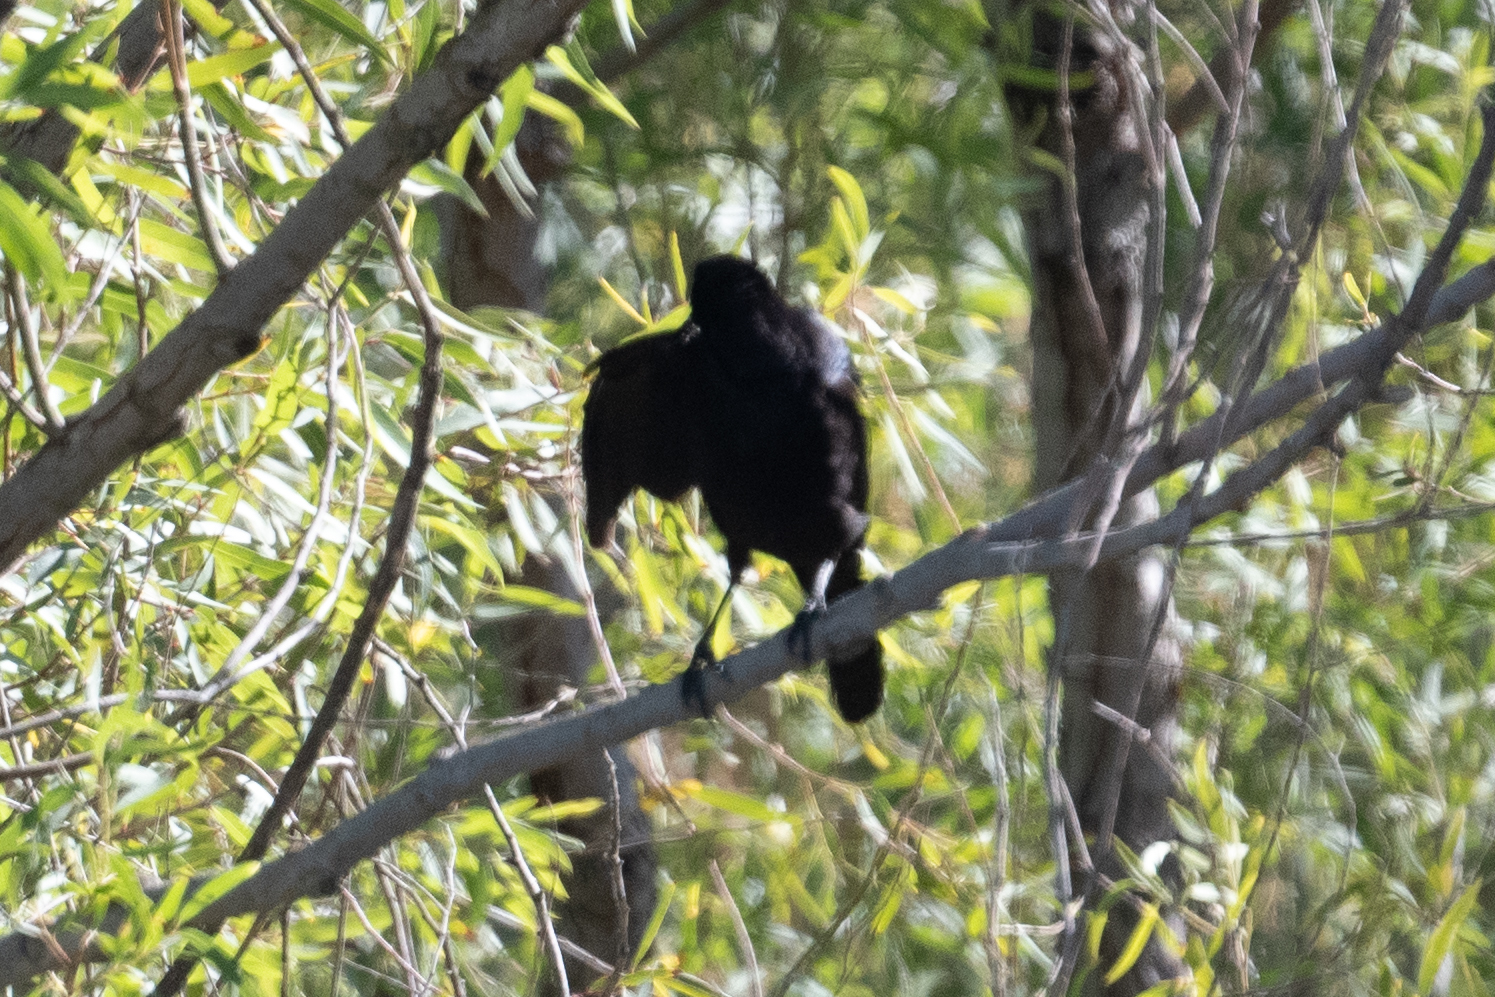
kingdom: Animalia
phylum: Chordata
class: Aves
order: Passeriformes
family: Icteridae
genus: Quiscalus
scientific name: Quiscalus mexicanus
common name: Great-tailed grackle
